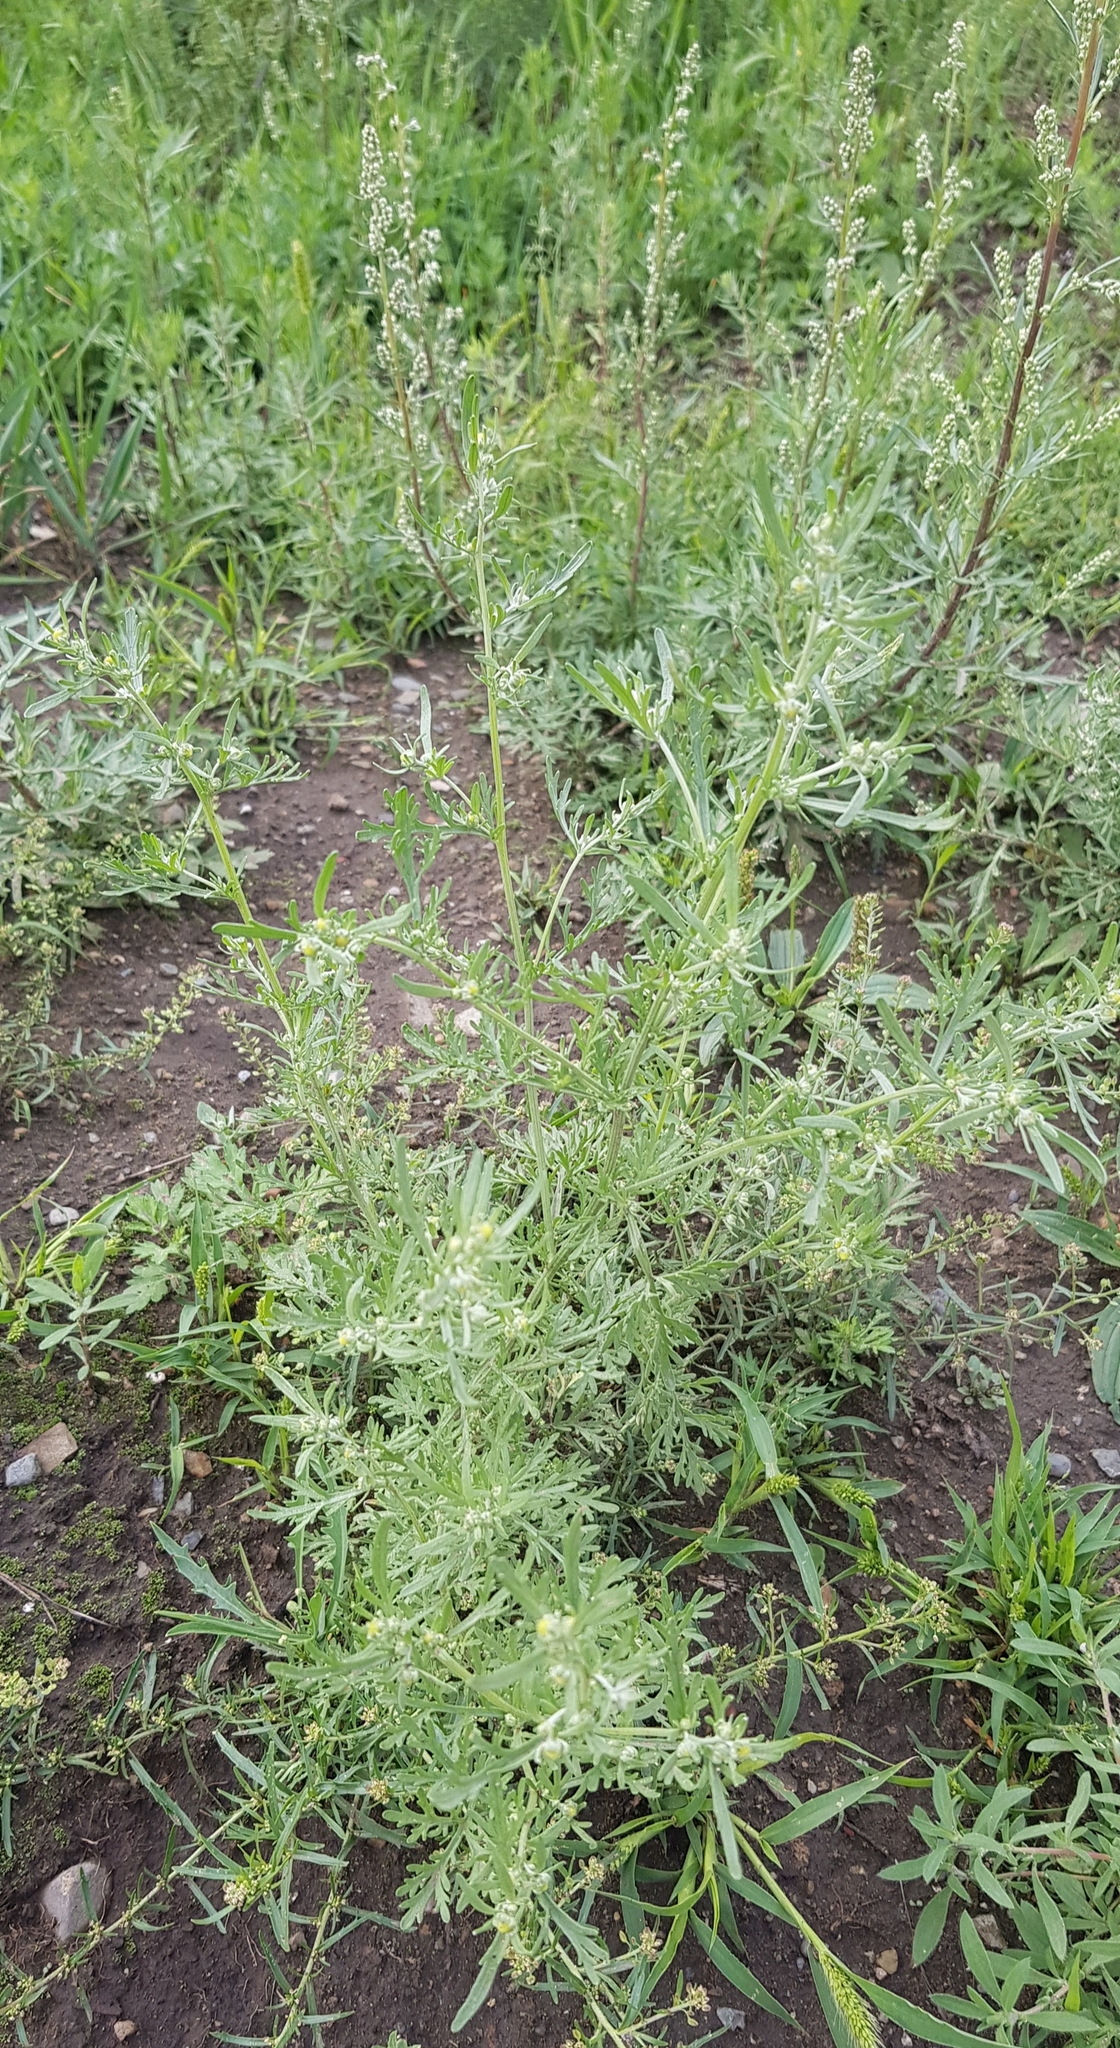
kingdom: Plantae
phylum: Tracheophyta
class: Magnoliopsida
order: Asterales
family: Asteraceae
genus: Artemisia
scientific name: Artemisia sieversiana
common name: Sieversian wormwood
